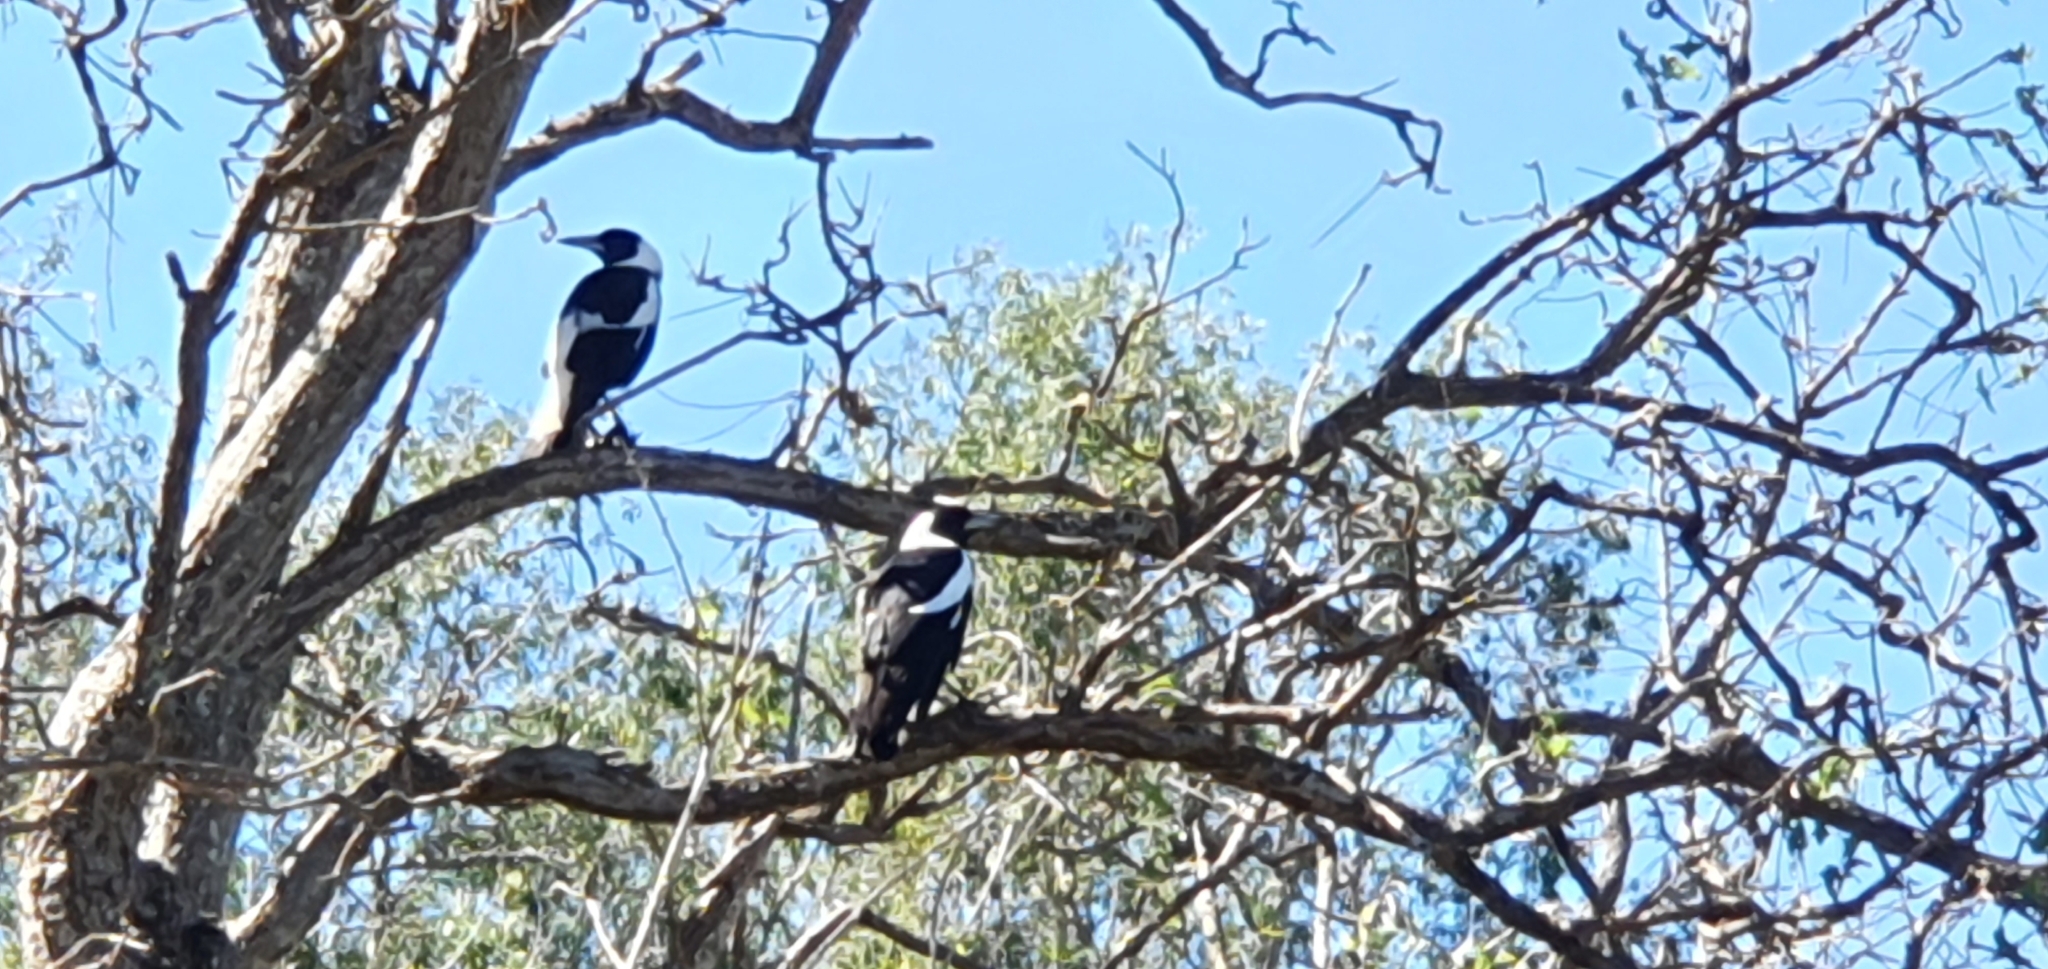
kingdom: Animalia
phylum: Chordata
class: Aves
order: Passeriformes
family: Cracticidae
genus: Gymnorhina
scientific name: Gymnorhina tibicen
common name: Australian magpie
